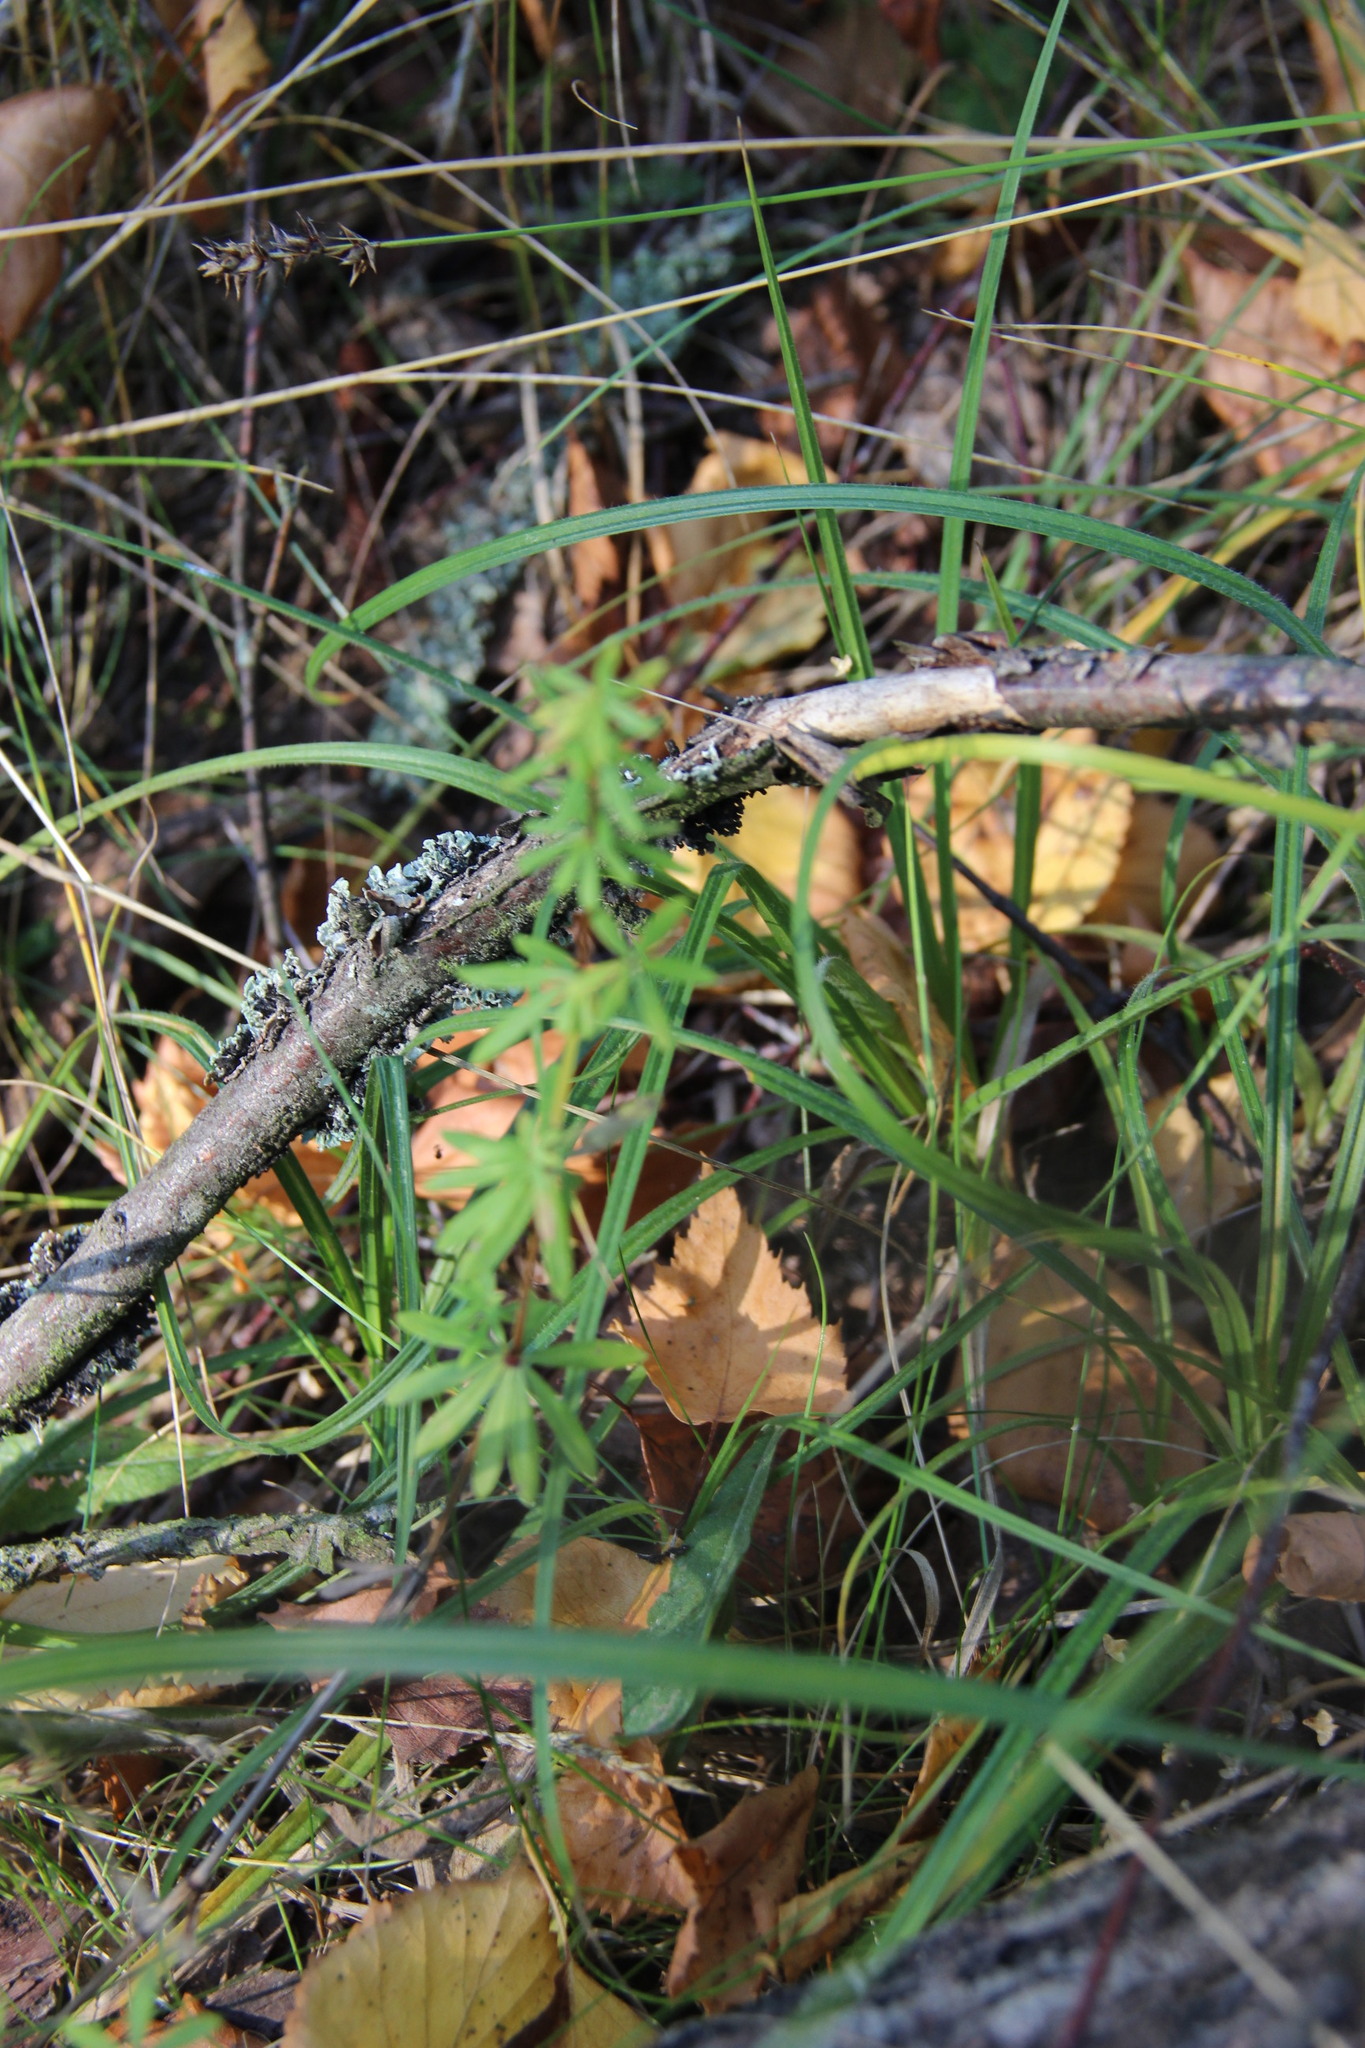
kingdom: Plantae
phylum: Tracheophyta
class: Magnoliopsida
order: Gentianales
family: Rubiaceae
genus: Galium
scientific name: Galium mollugo
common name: Hedge bedstraw
